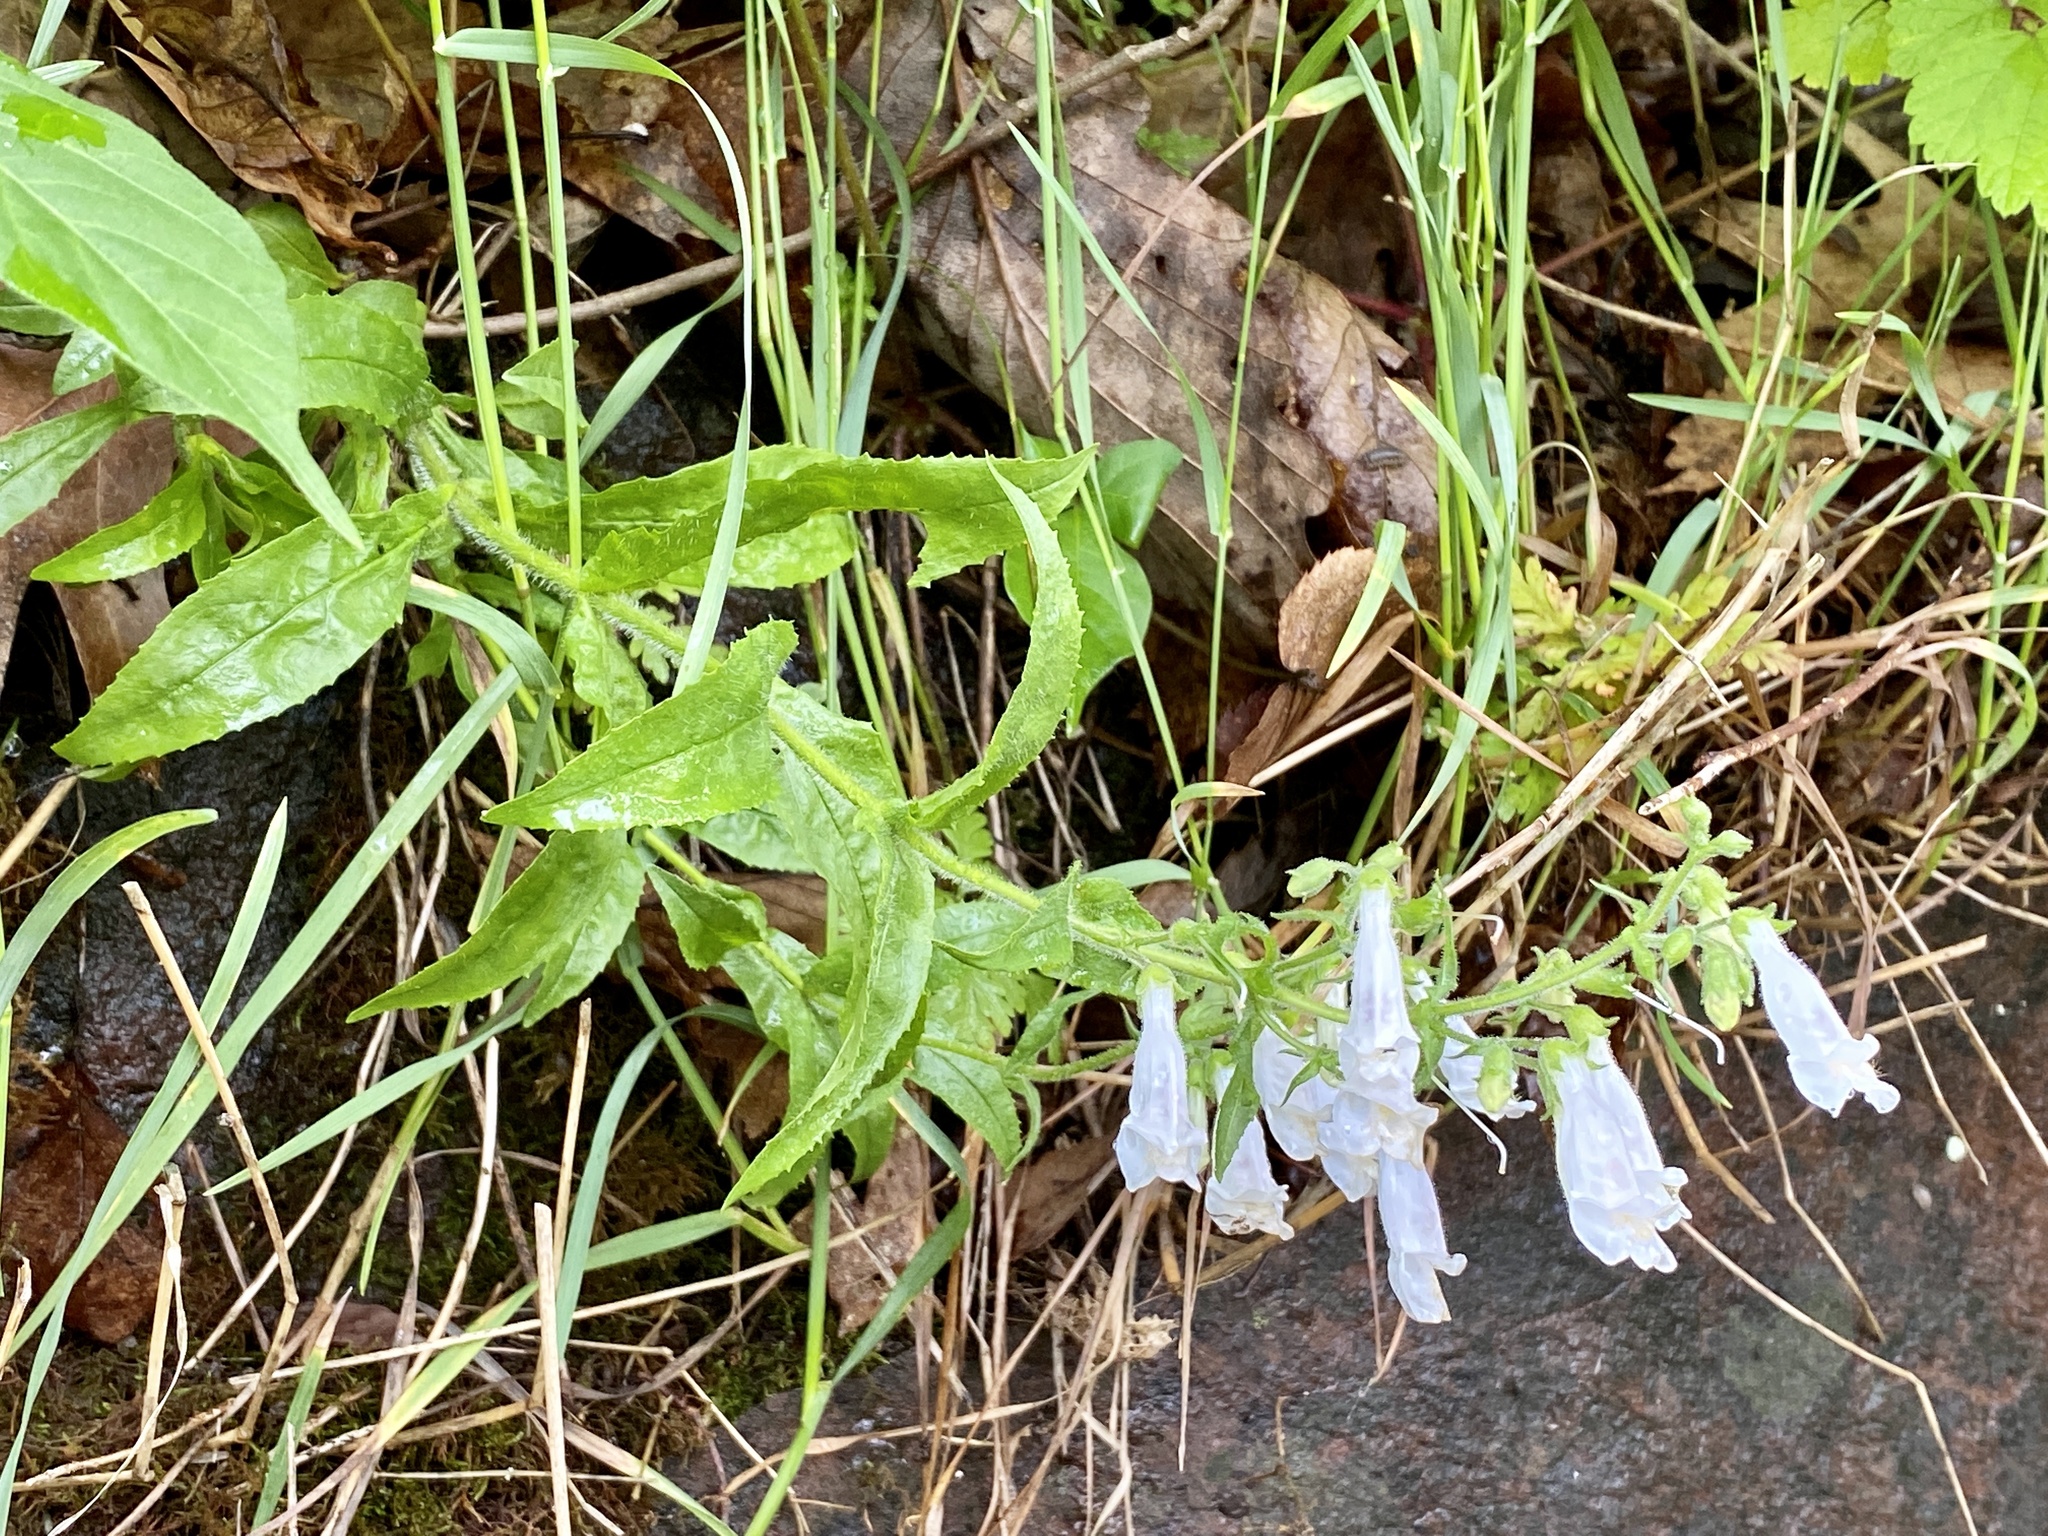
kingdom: Plantae
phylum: Tracheophyta
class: Magnoliopsida
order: Lamiales
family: Plantaginaceae
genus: Penstemon
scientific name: Penstemon hirsutus
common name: Hairy beardtongue
